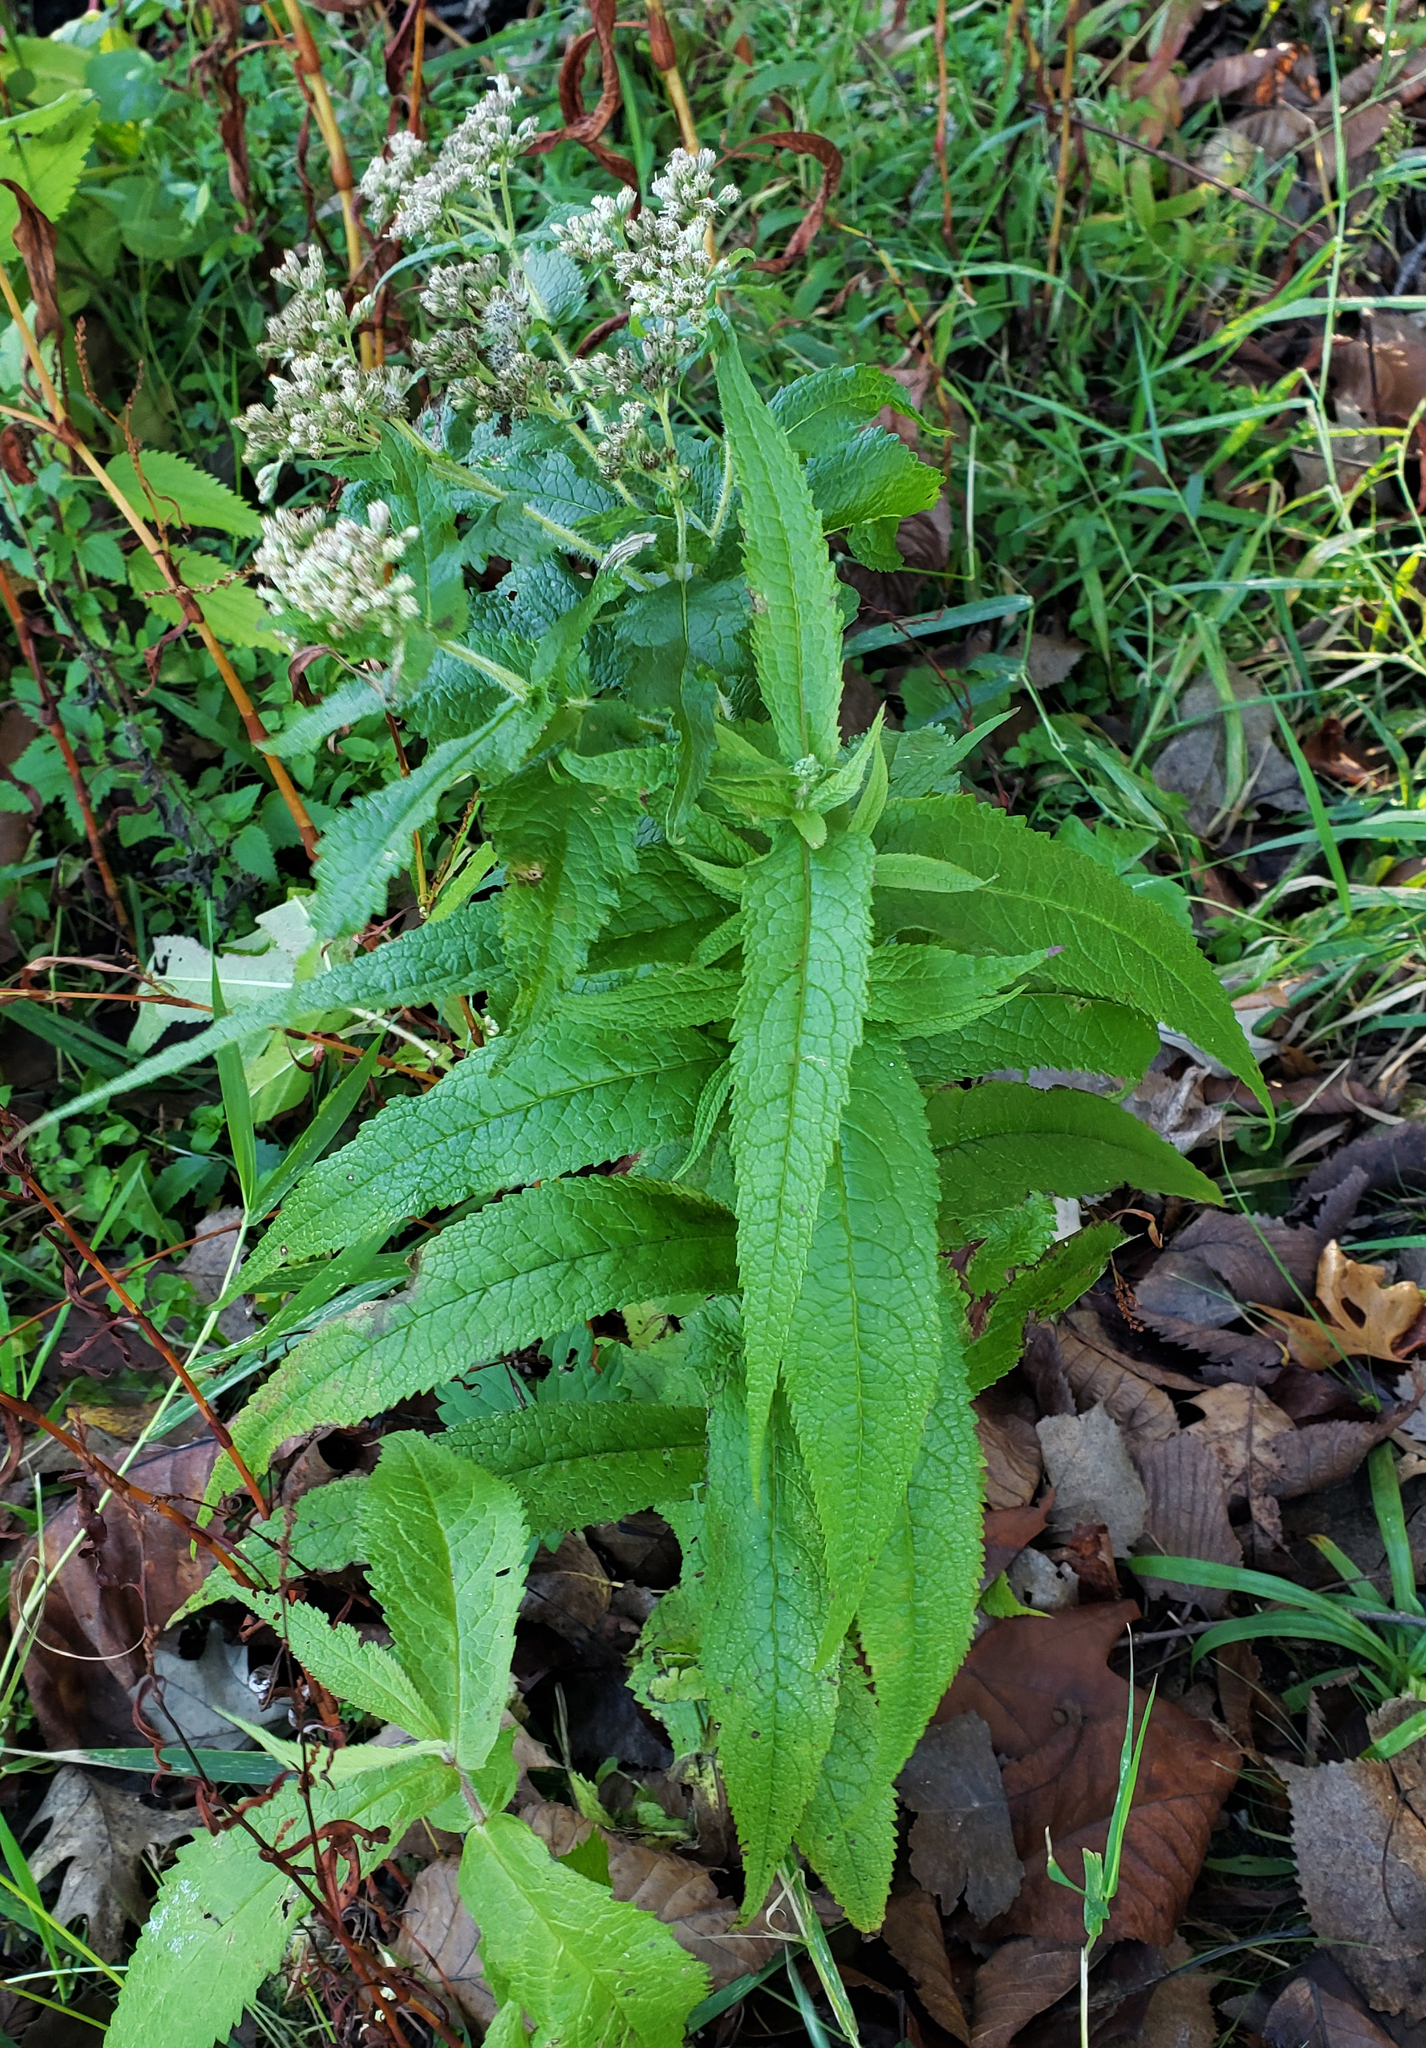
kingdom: Plantae
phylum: Tracheophyta
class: Magnoliopsida
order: Asterales
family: Asteraceae
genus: Eupatorium
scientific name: Eupatorium perfoliatum
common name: Boneset
